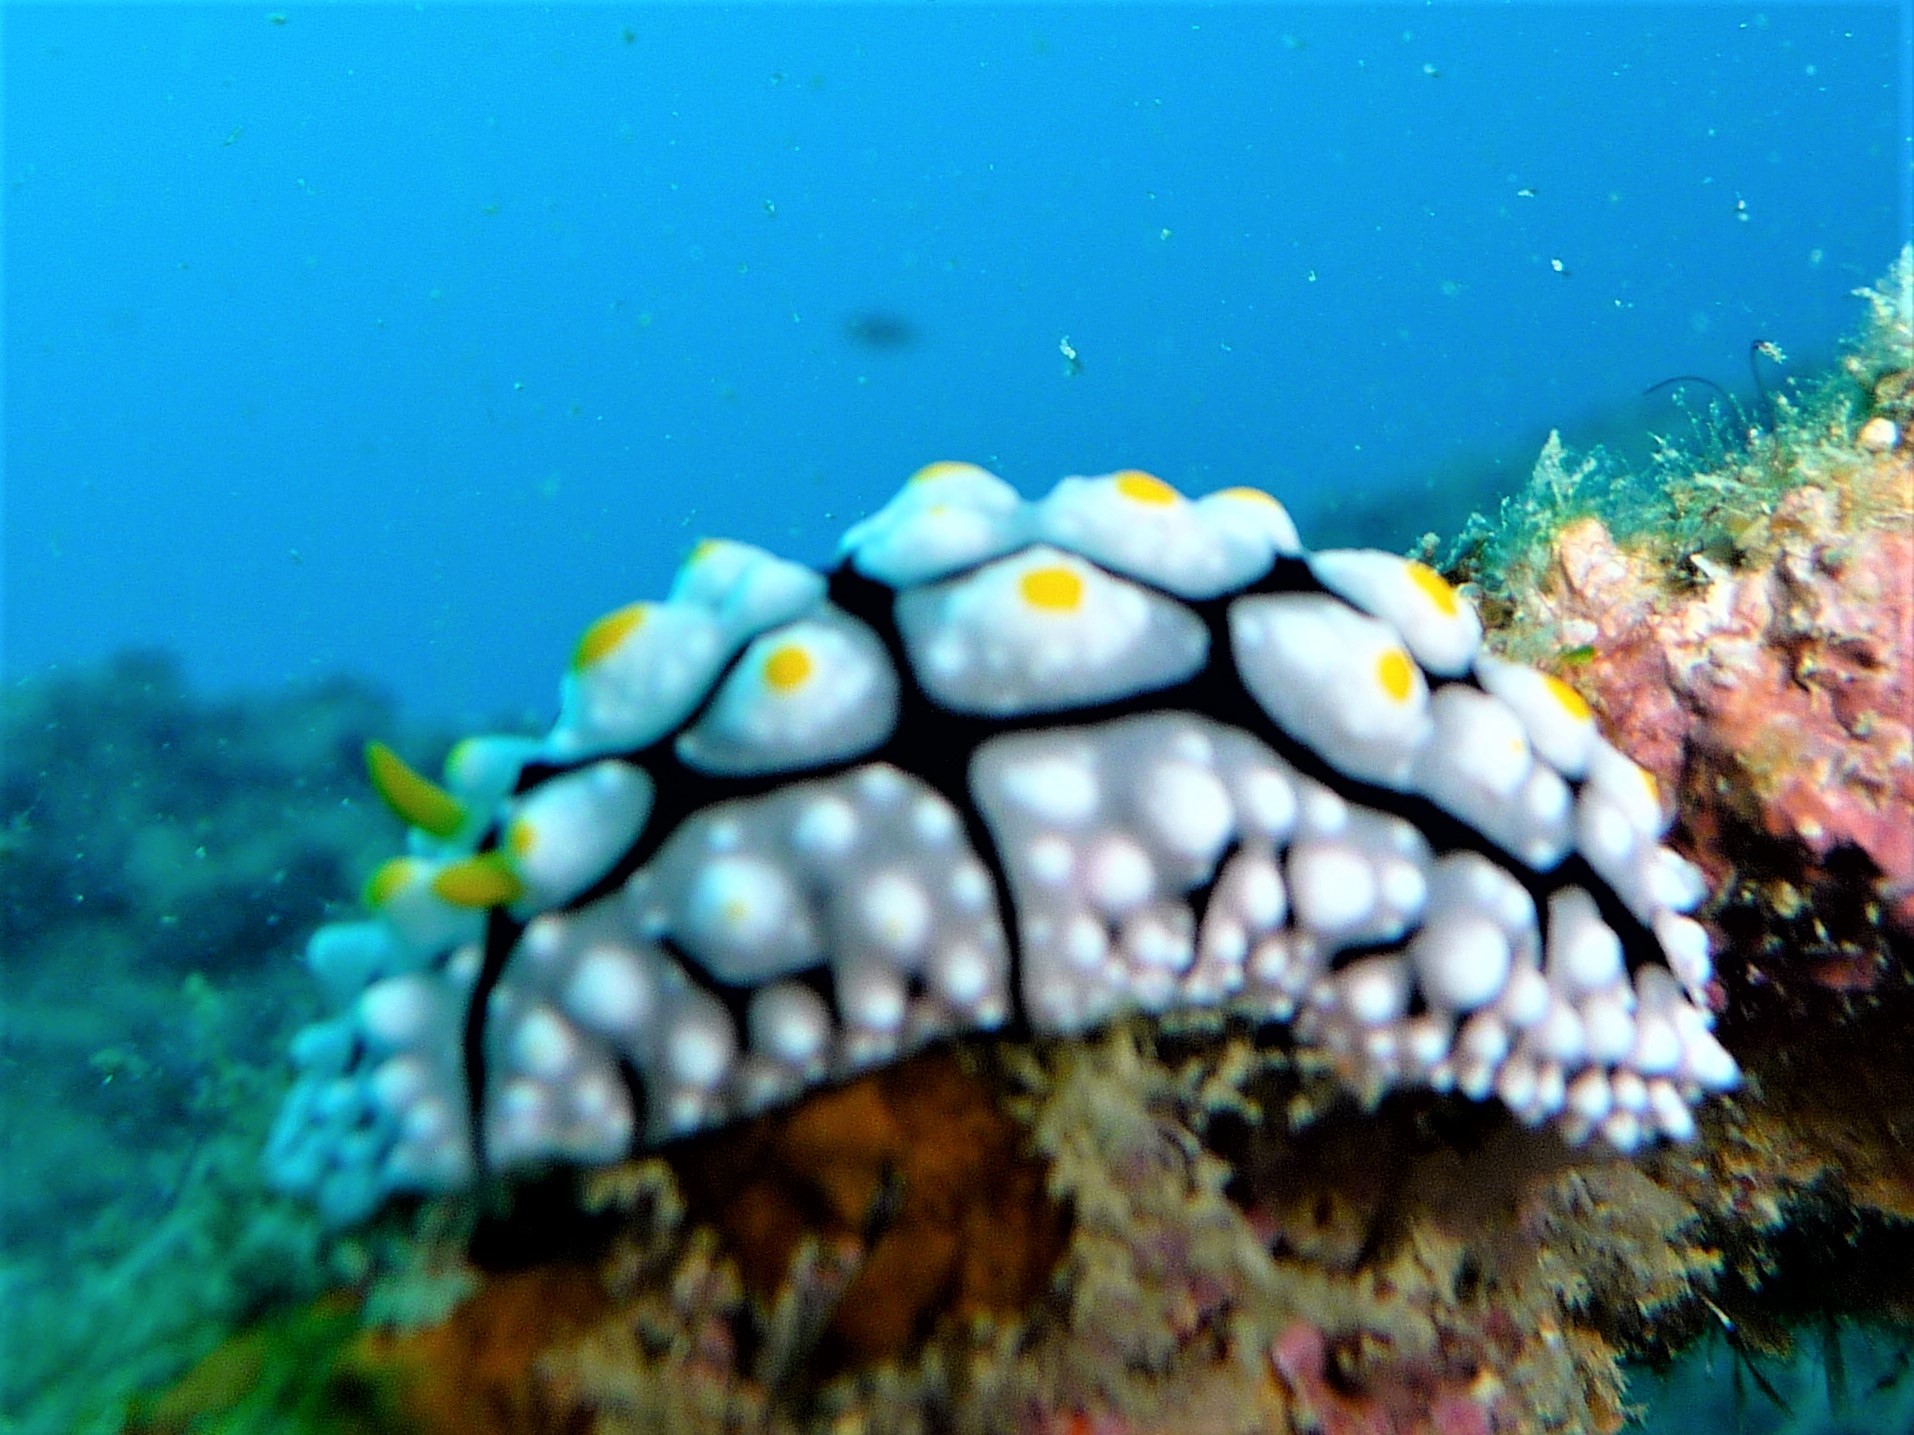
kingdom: Animalia
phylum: Mollusca
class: Gastropoda
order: Nudibranchia
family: Phyllidiidae
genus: Phyllidia
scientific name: Phyllidia elegans
